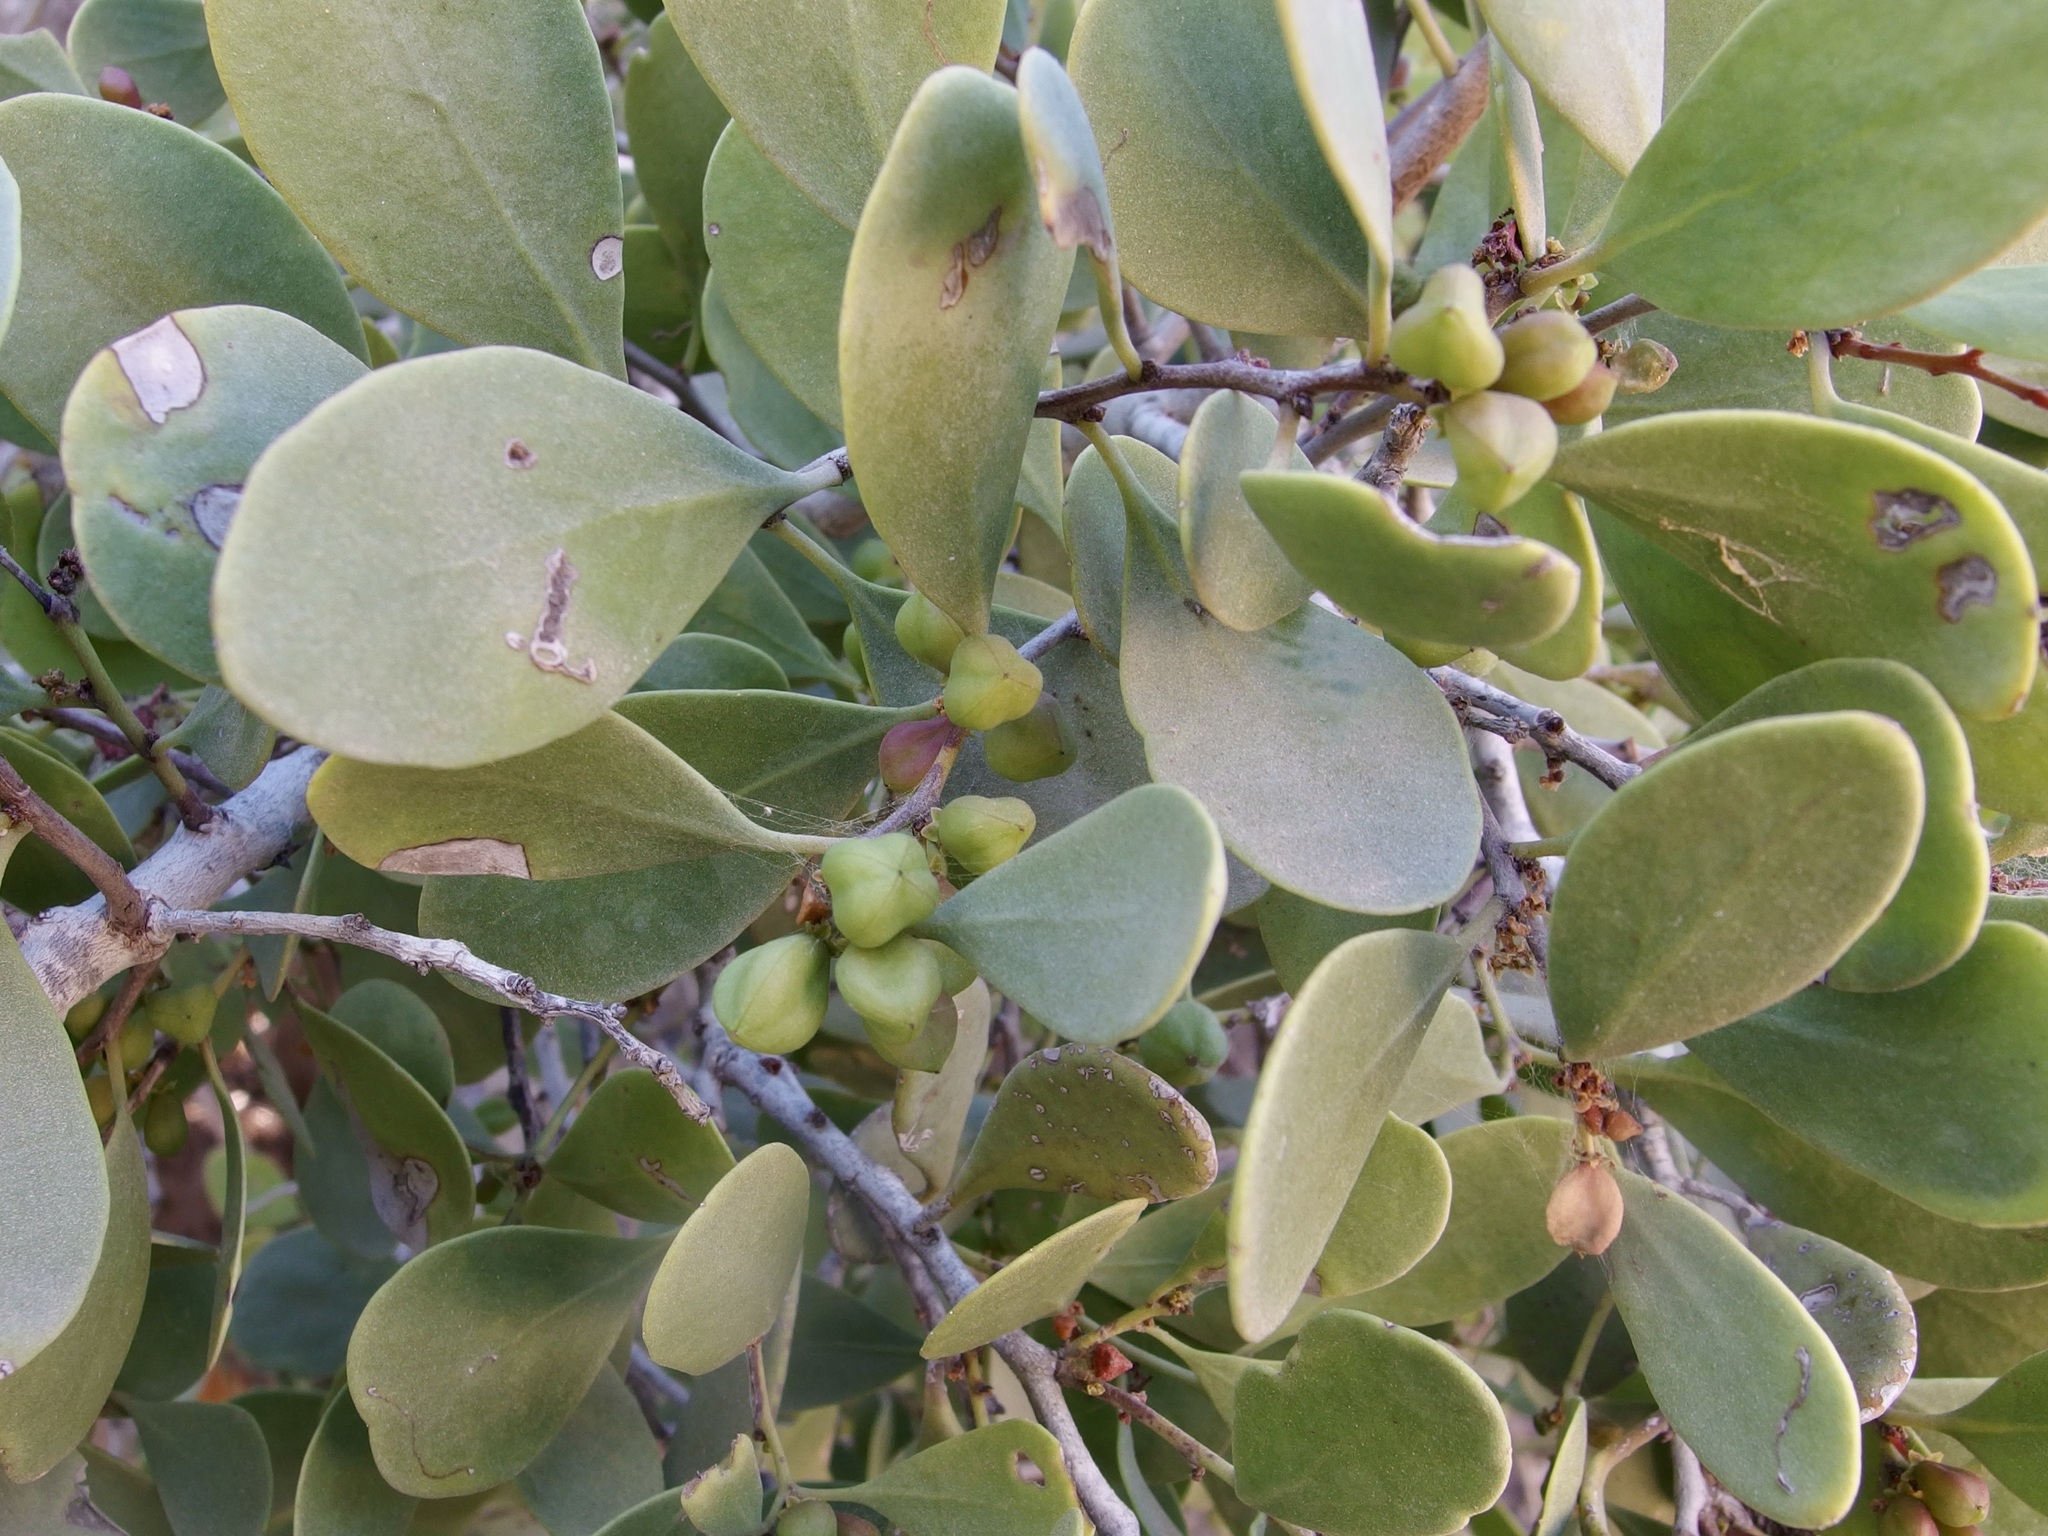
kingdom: Plantae
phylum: Tracheophyta
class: Magnoliopsida
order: Celastrales
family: Celastraceae
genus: Tricerma
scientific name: Tricerma phyllanthoides
